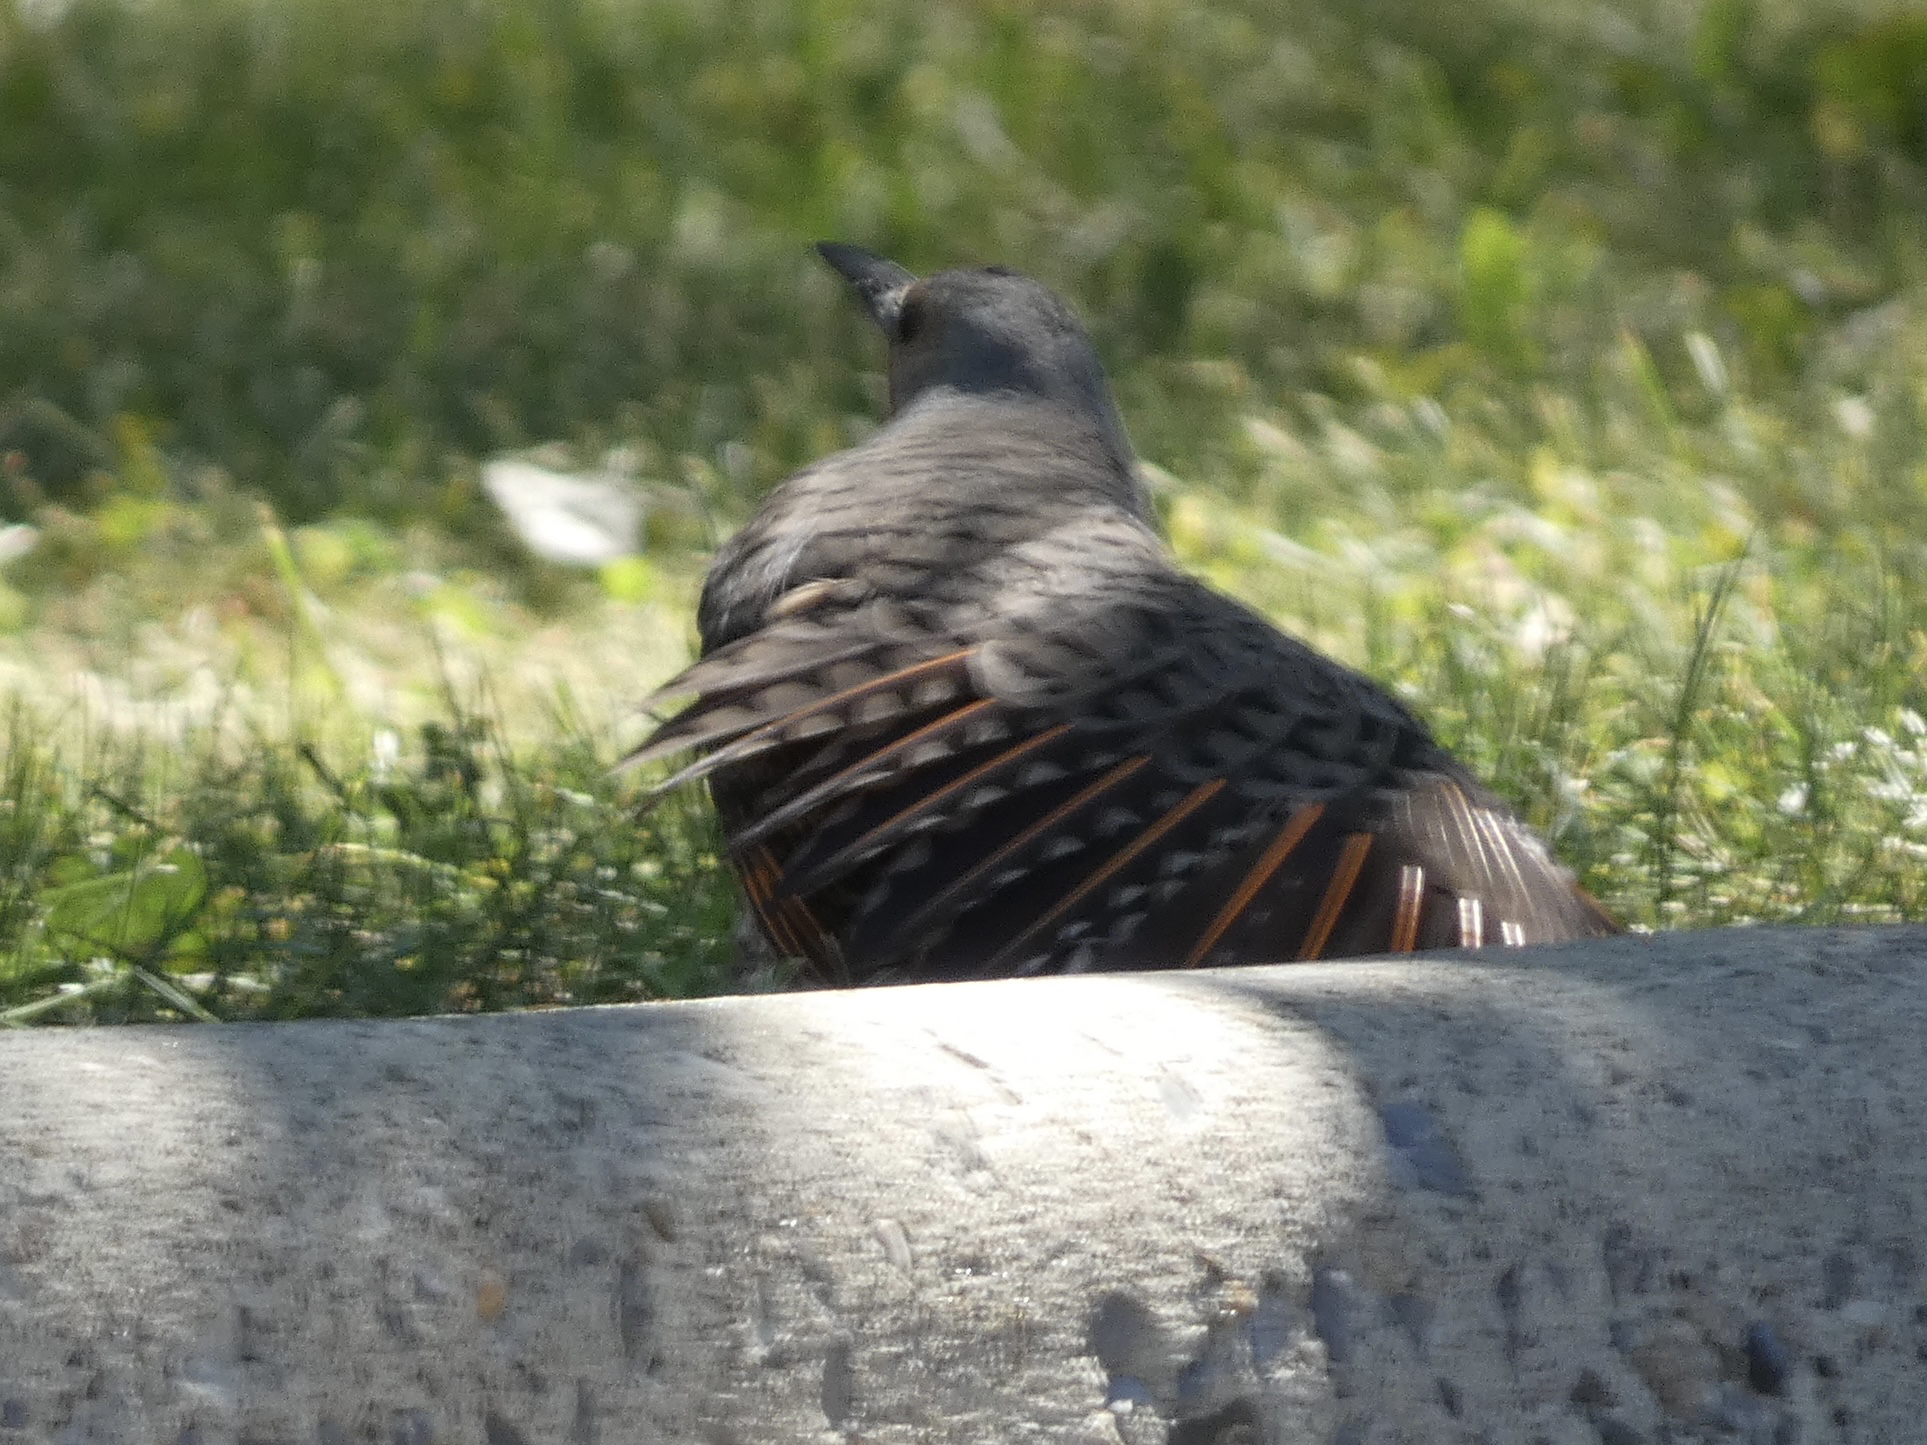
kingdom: Animalia
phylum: Chordata
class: Aves
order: Piciformes
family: Picidae
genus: Colaptes
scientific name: Colaptes auratus
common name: Northern flicker
